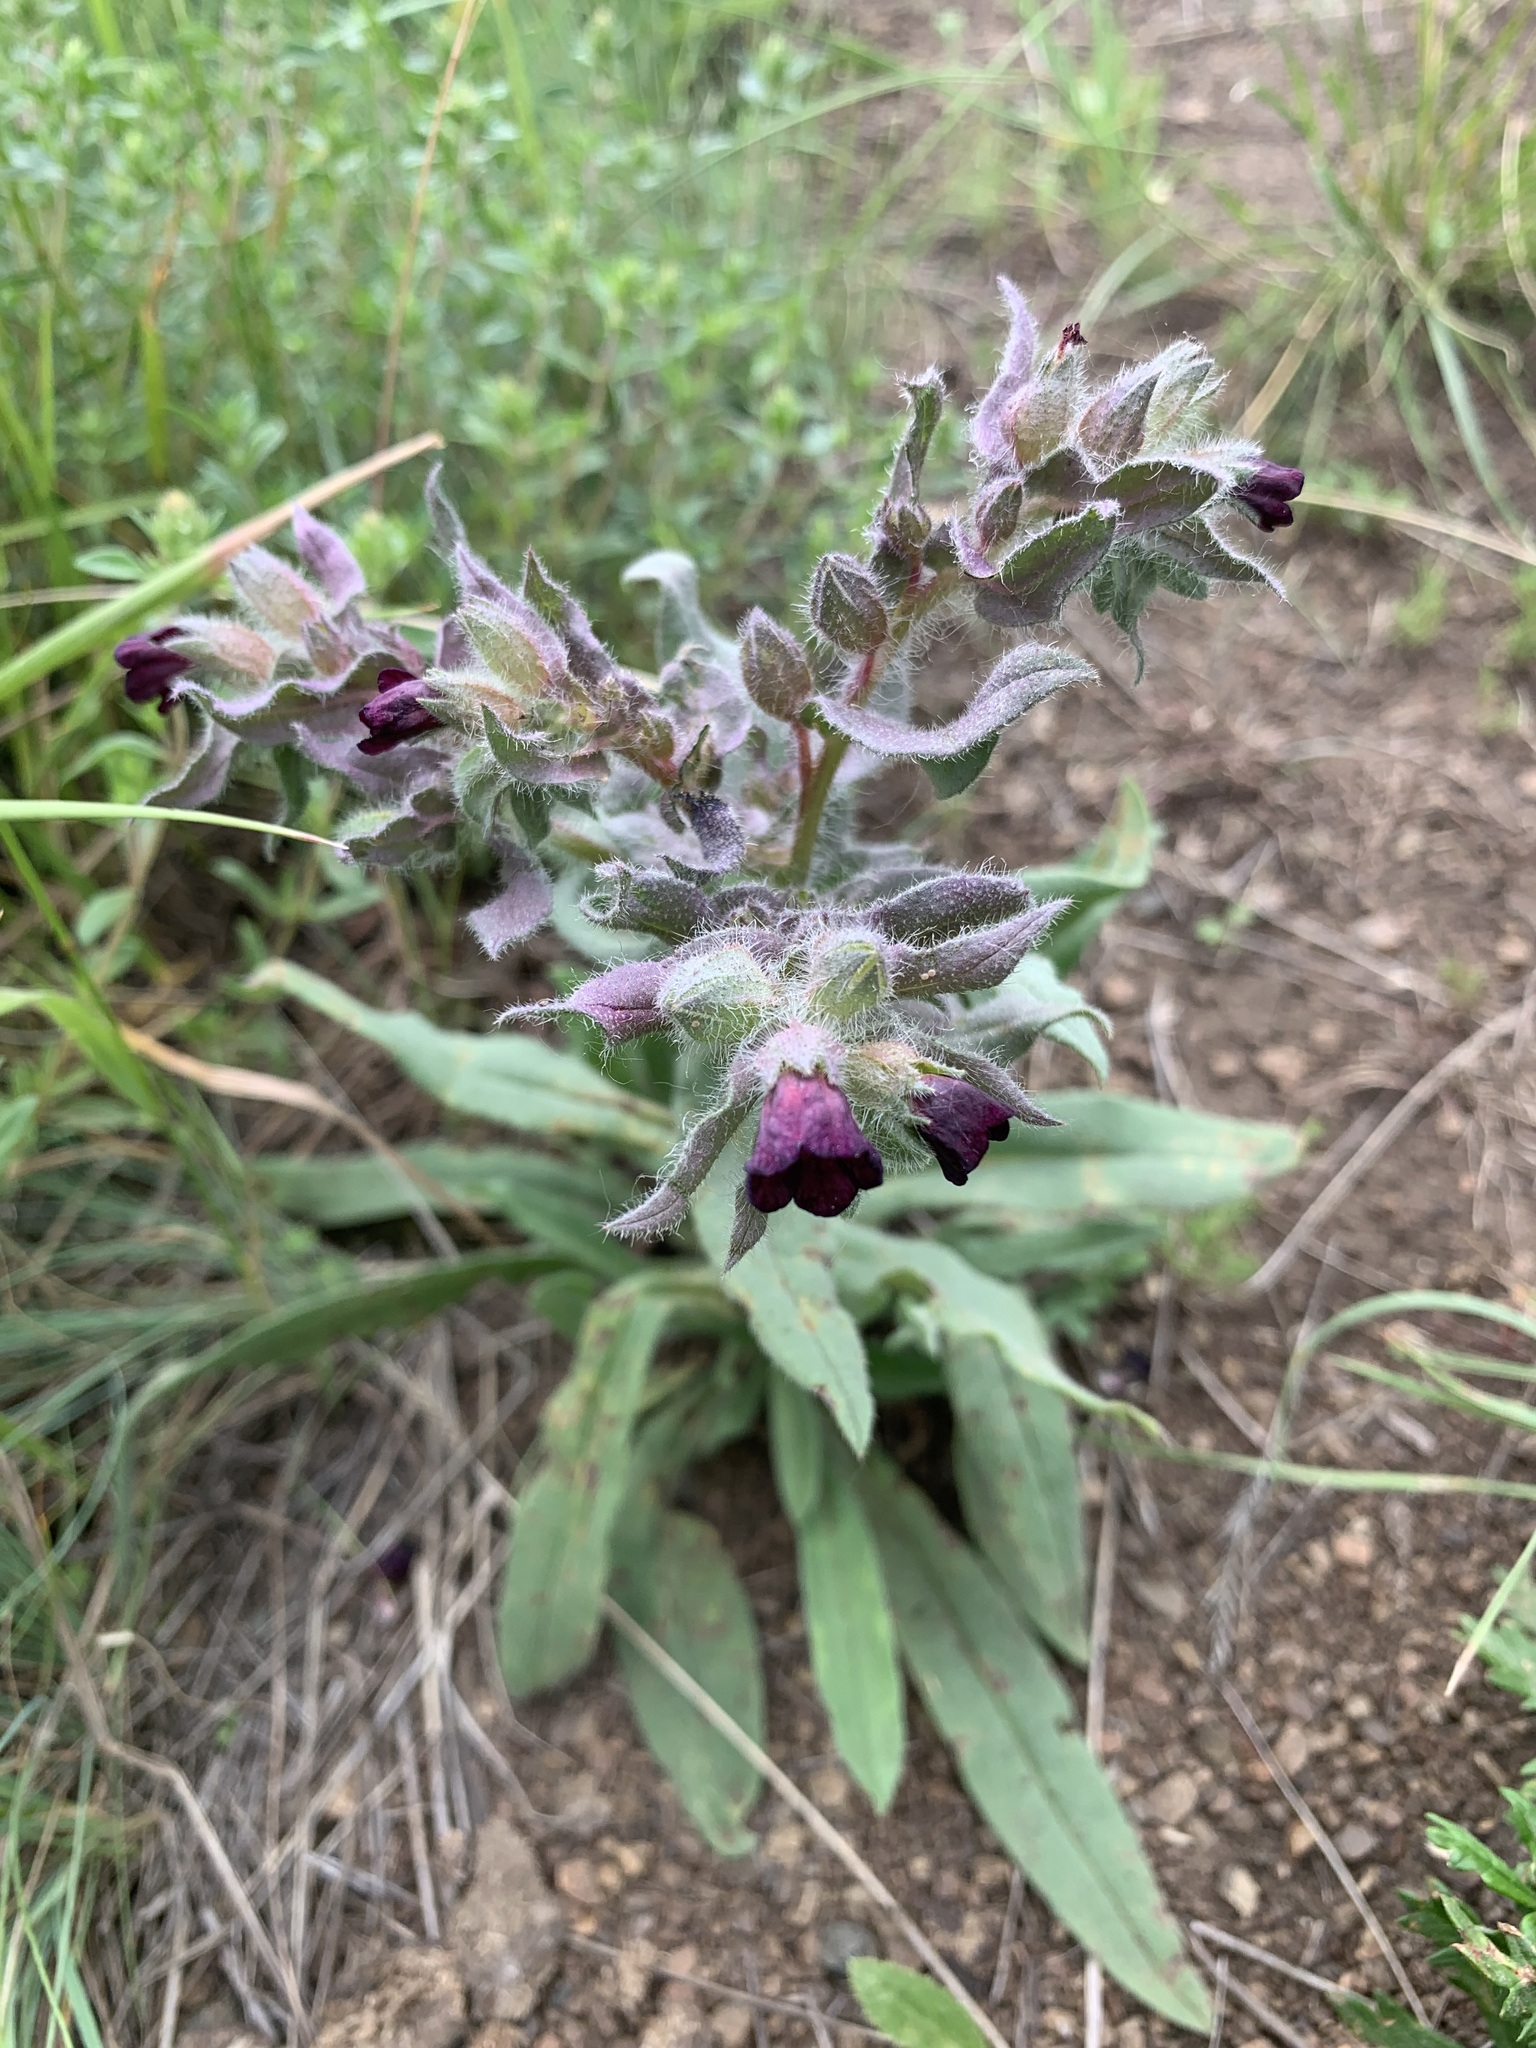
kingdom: Plantae
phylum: Tracheophyta
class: Magnoliopsida
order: Boraginales
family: Boraginaceae
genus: Nonea
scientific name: Nonea pulla
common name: Brown nonea
